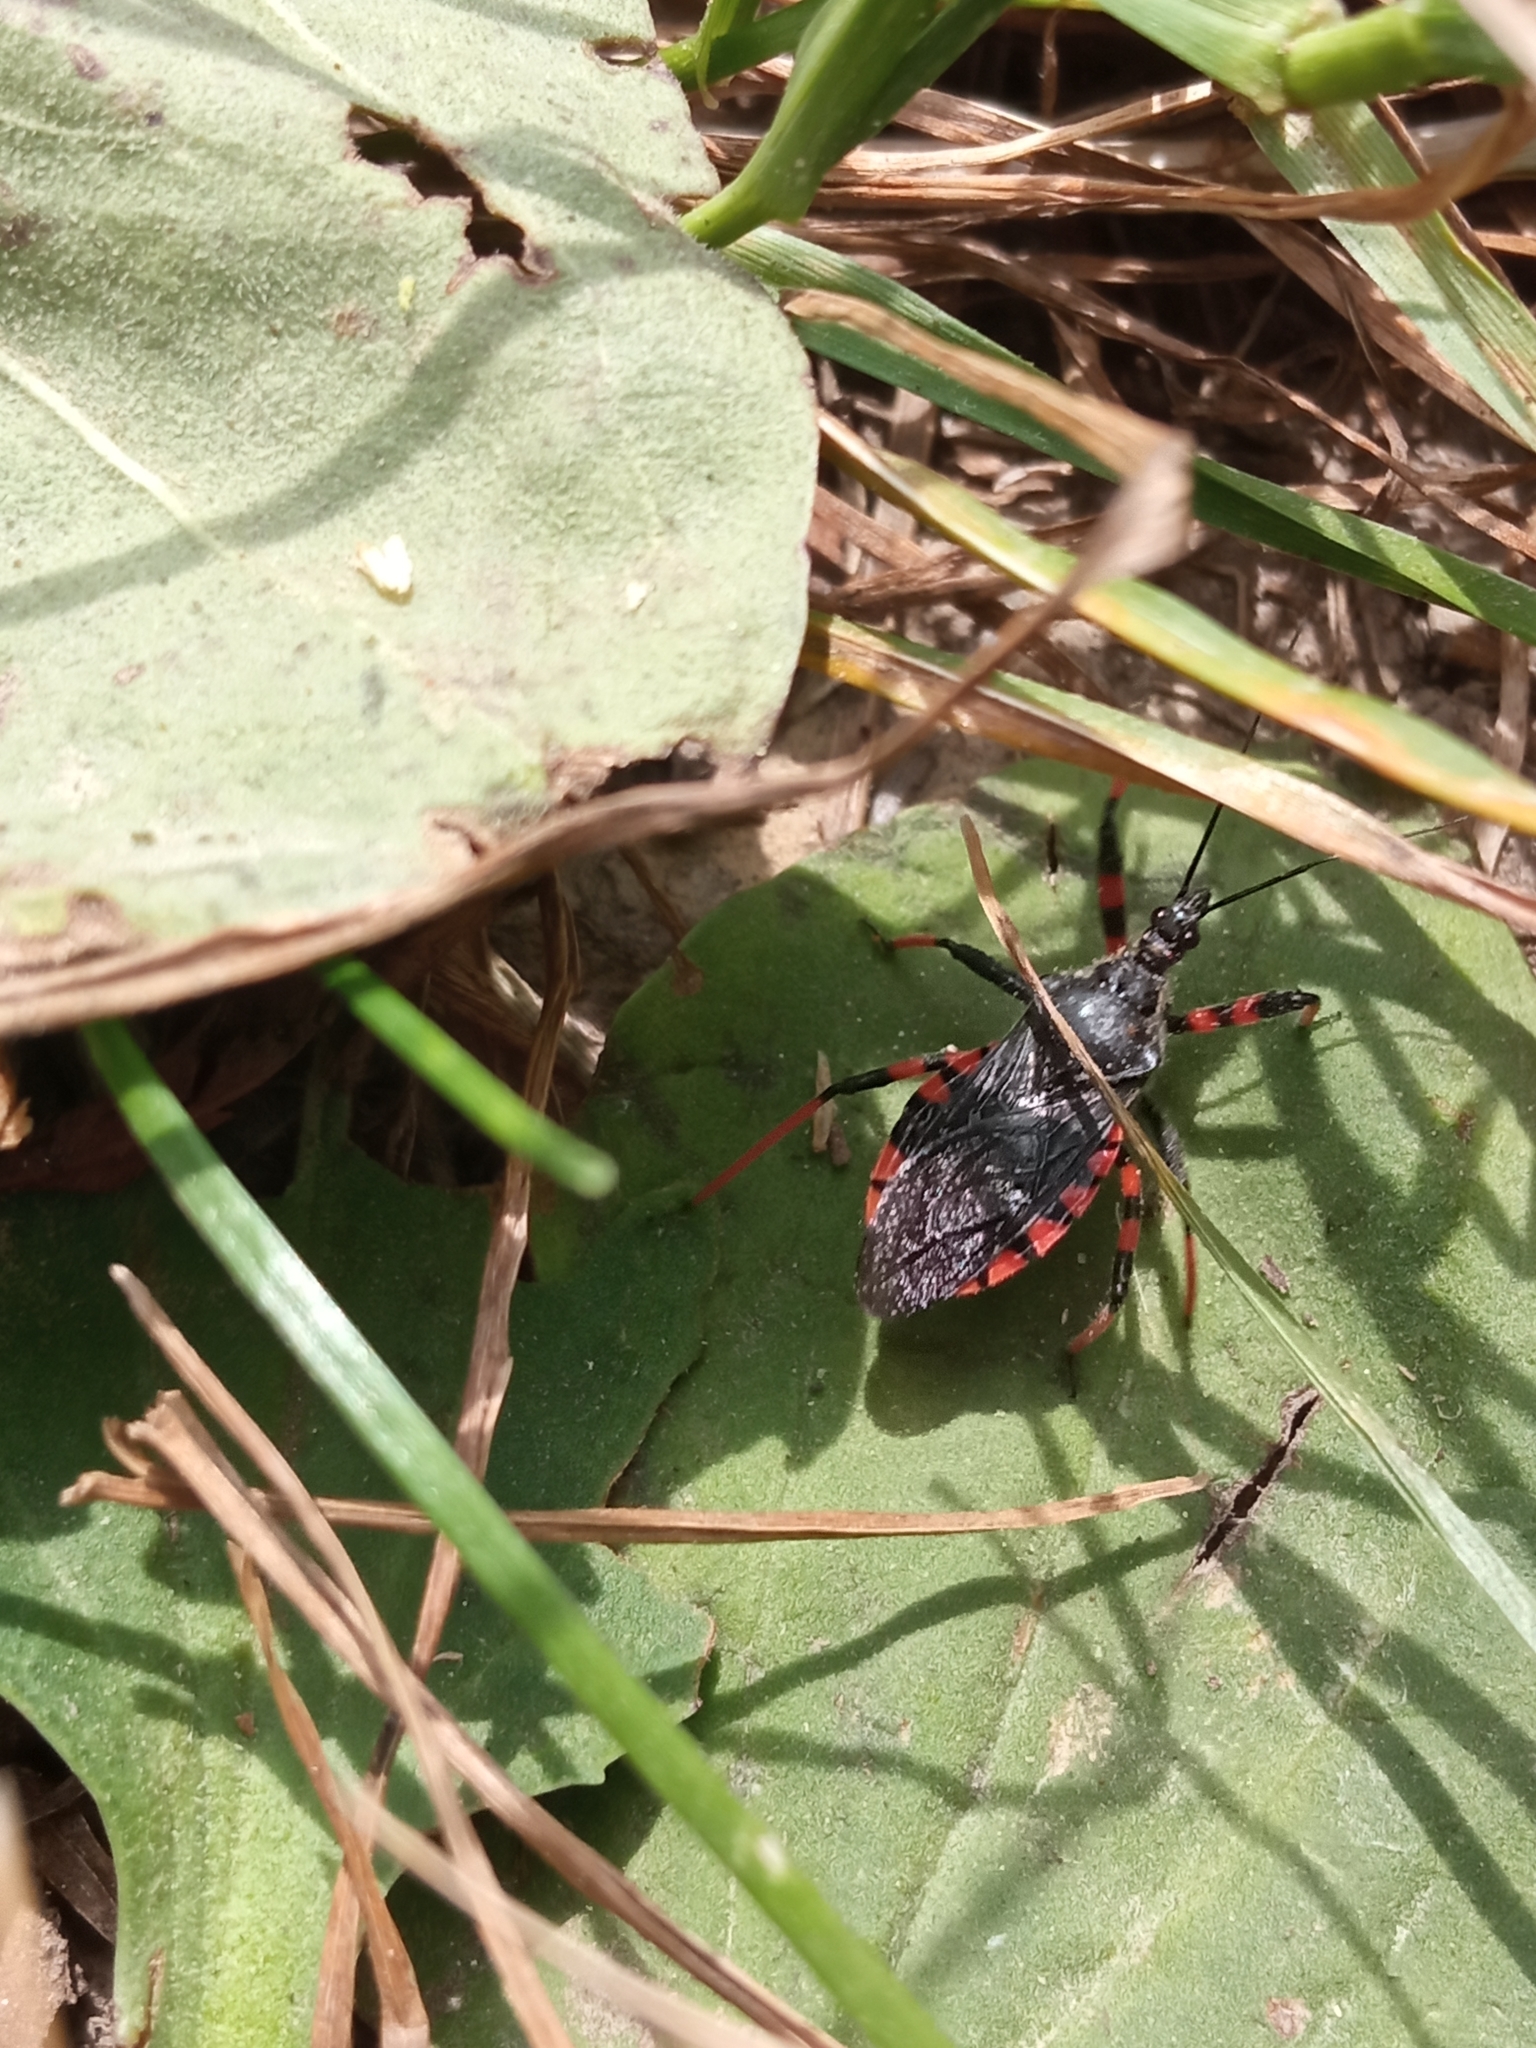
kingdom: Animalia
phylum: Arthropoda
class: Insecta
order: Hemiptera
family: Reduviidae
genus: Rhynocoris
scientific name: Rhynocoris annulatus
